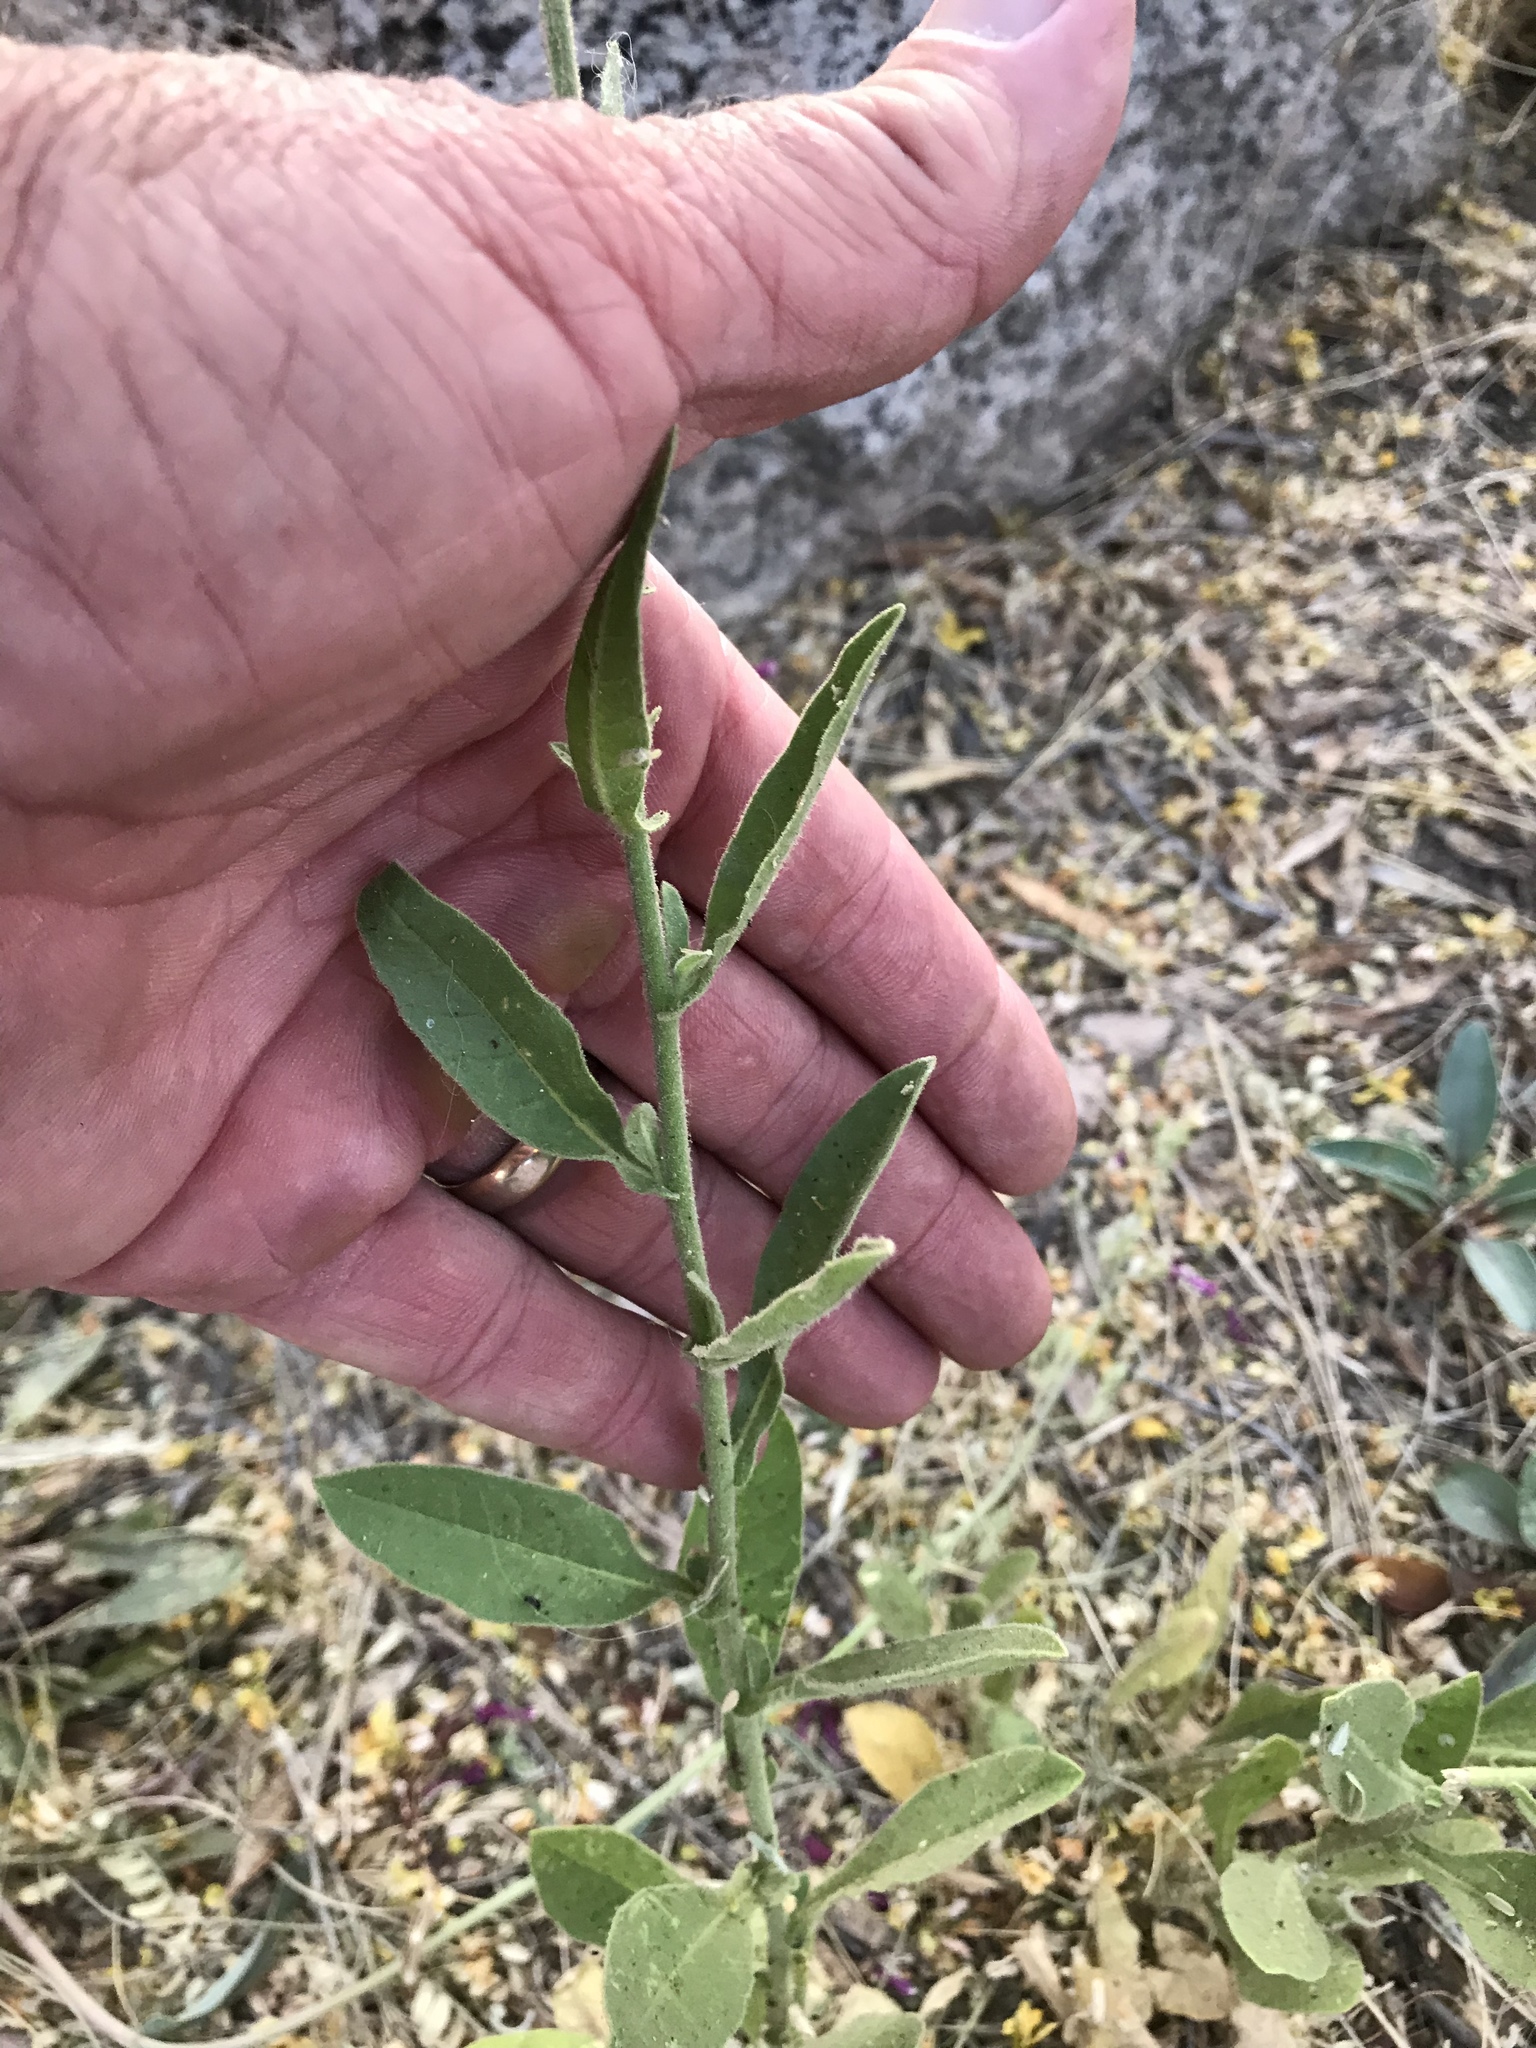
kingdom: Plantae
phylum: Tracheophyta
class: Magnoliopsida
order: Solanales
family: Solanaceae
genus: Nicotiana
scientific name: Nicotiana obtusifolia
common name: Desert tobacco
